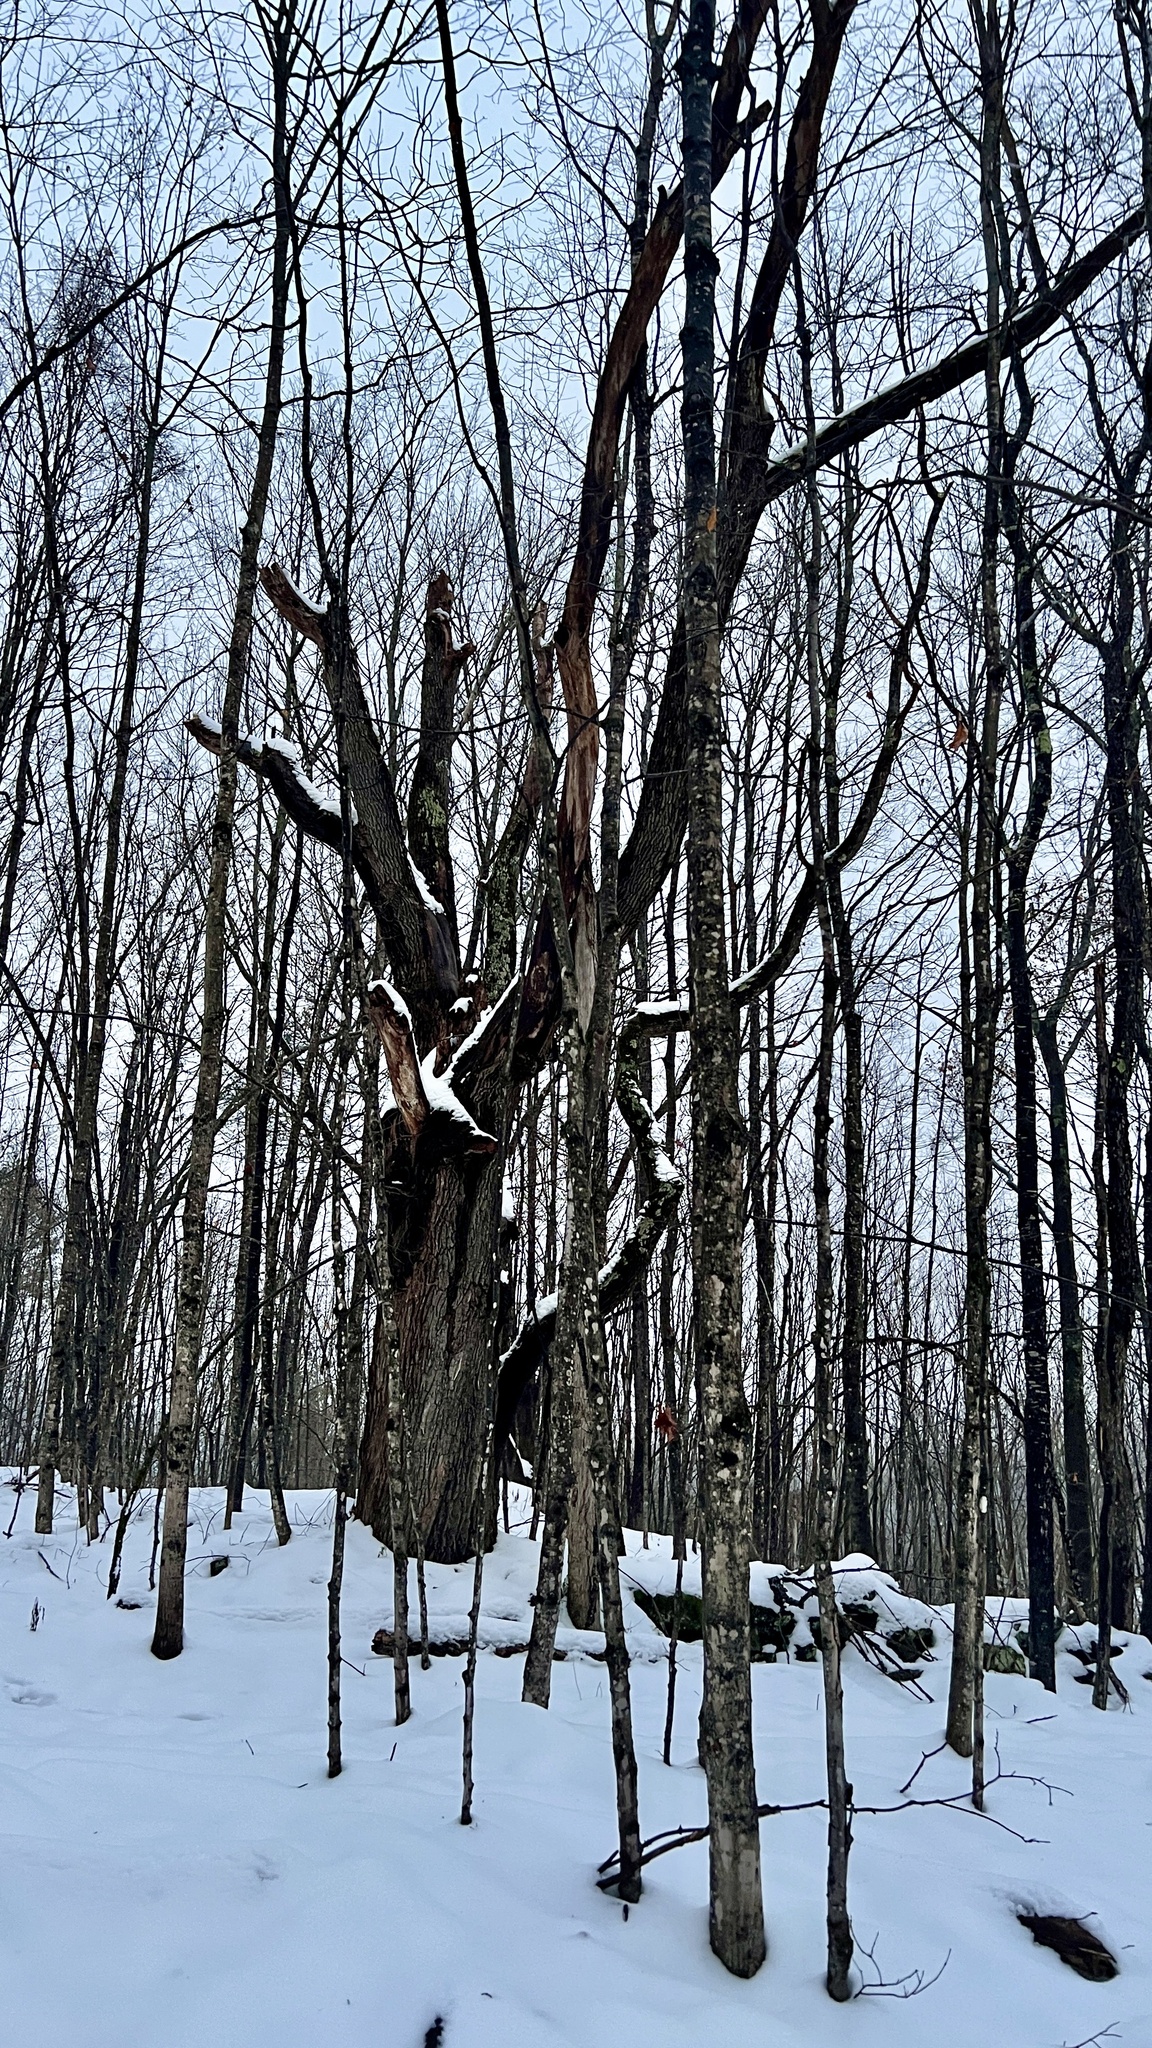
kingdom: Plantae
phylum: Tracheophyta
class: Magnoliopsida
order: Sapindales
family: Sapindaceae
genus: Acer
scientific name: Acer saccharum
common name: Sugar maple
